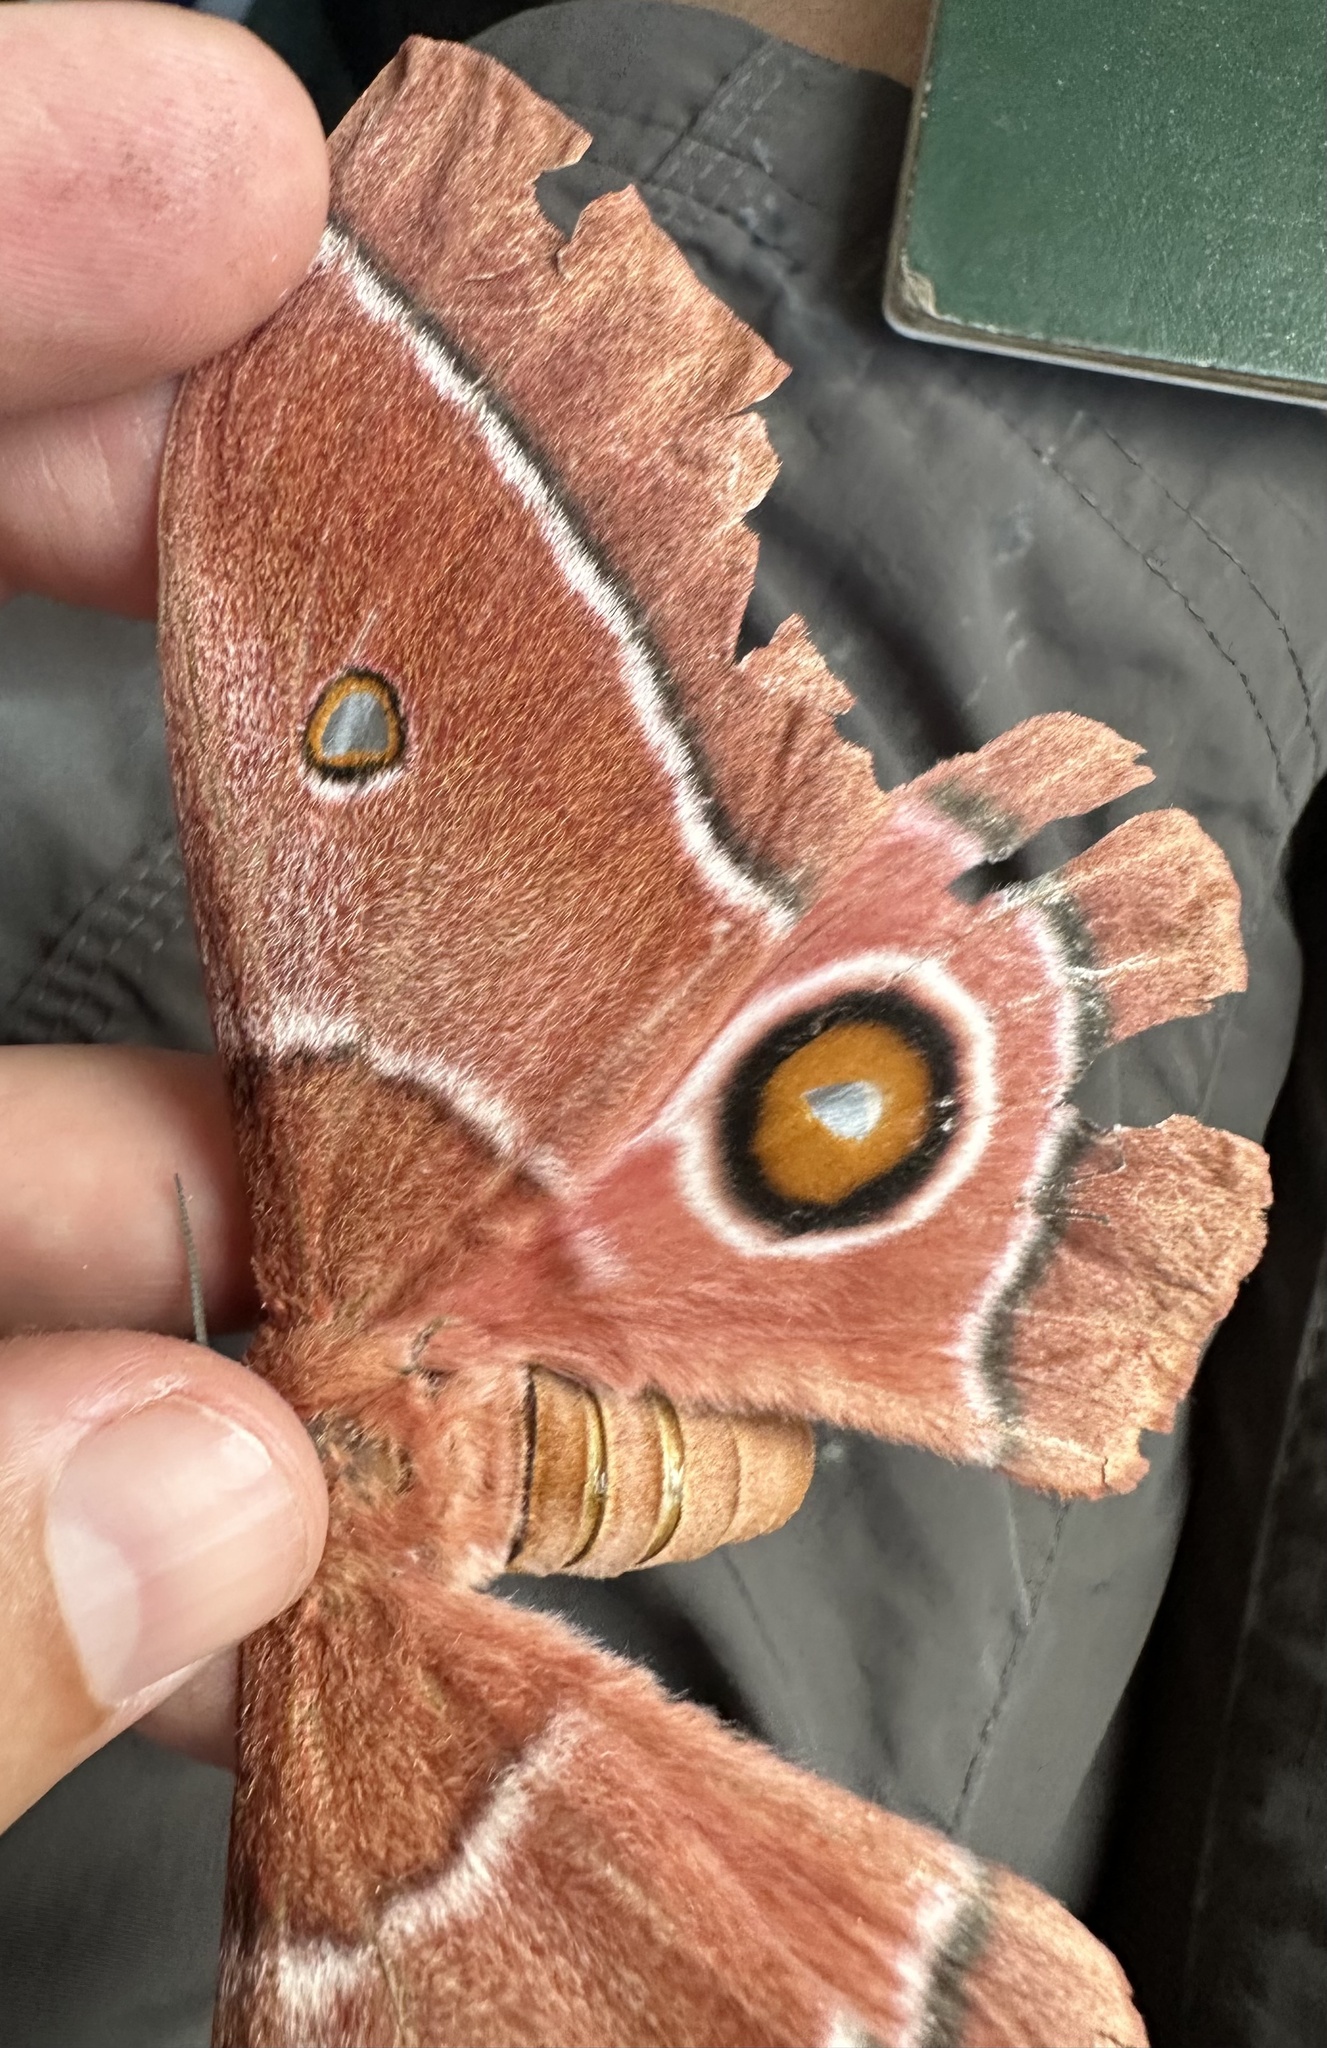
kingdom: Animalia
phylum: Arthropoda
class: Insecta
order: Lepidoptera
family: Saturniidae
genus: Gonimbrasia
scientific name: Gonimbrasia belina
